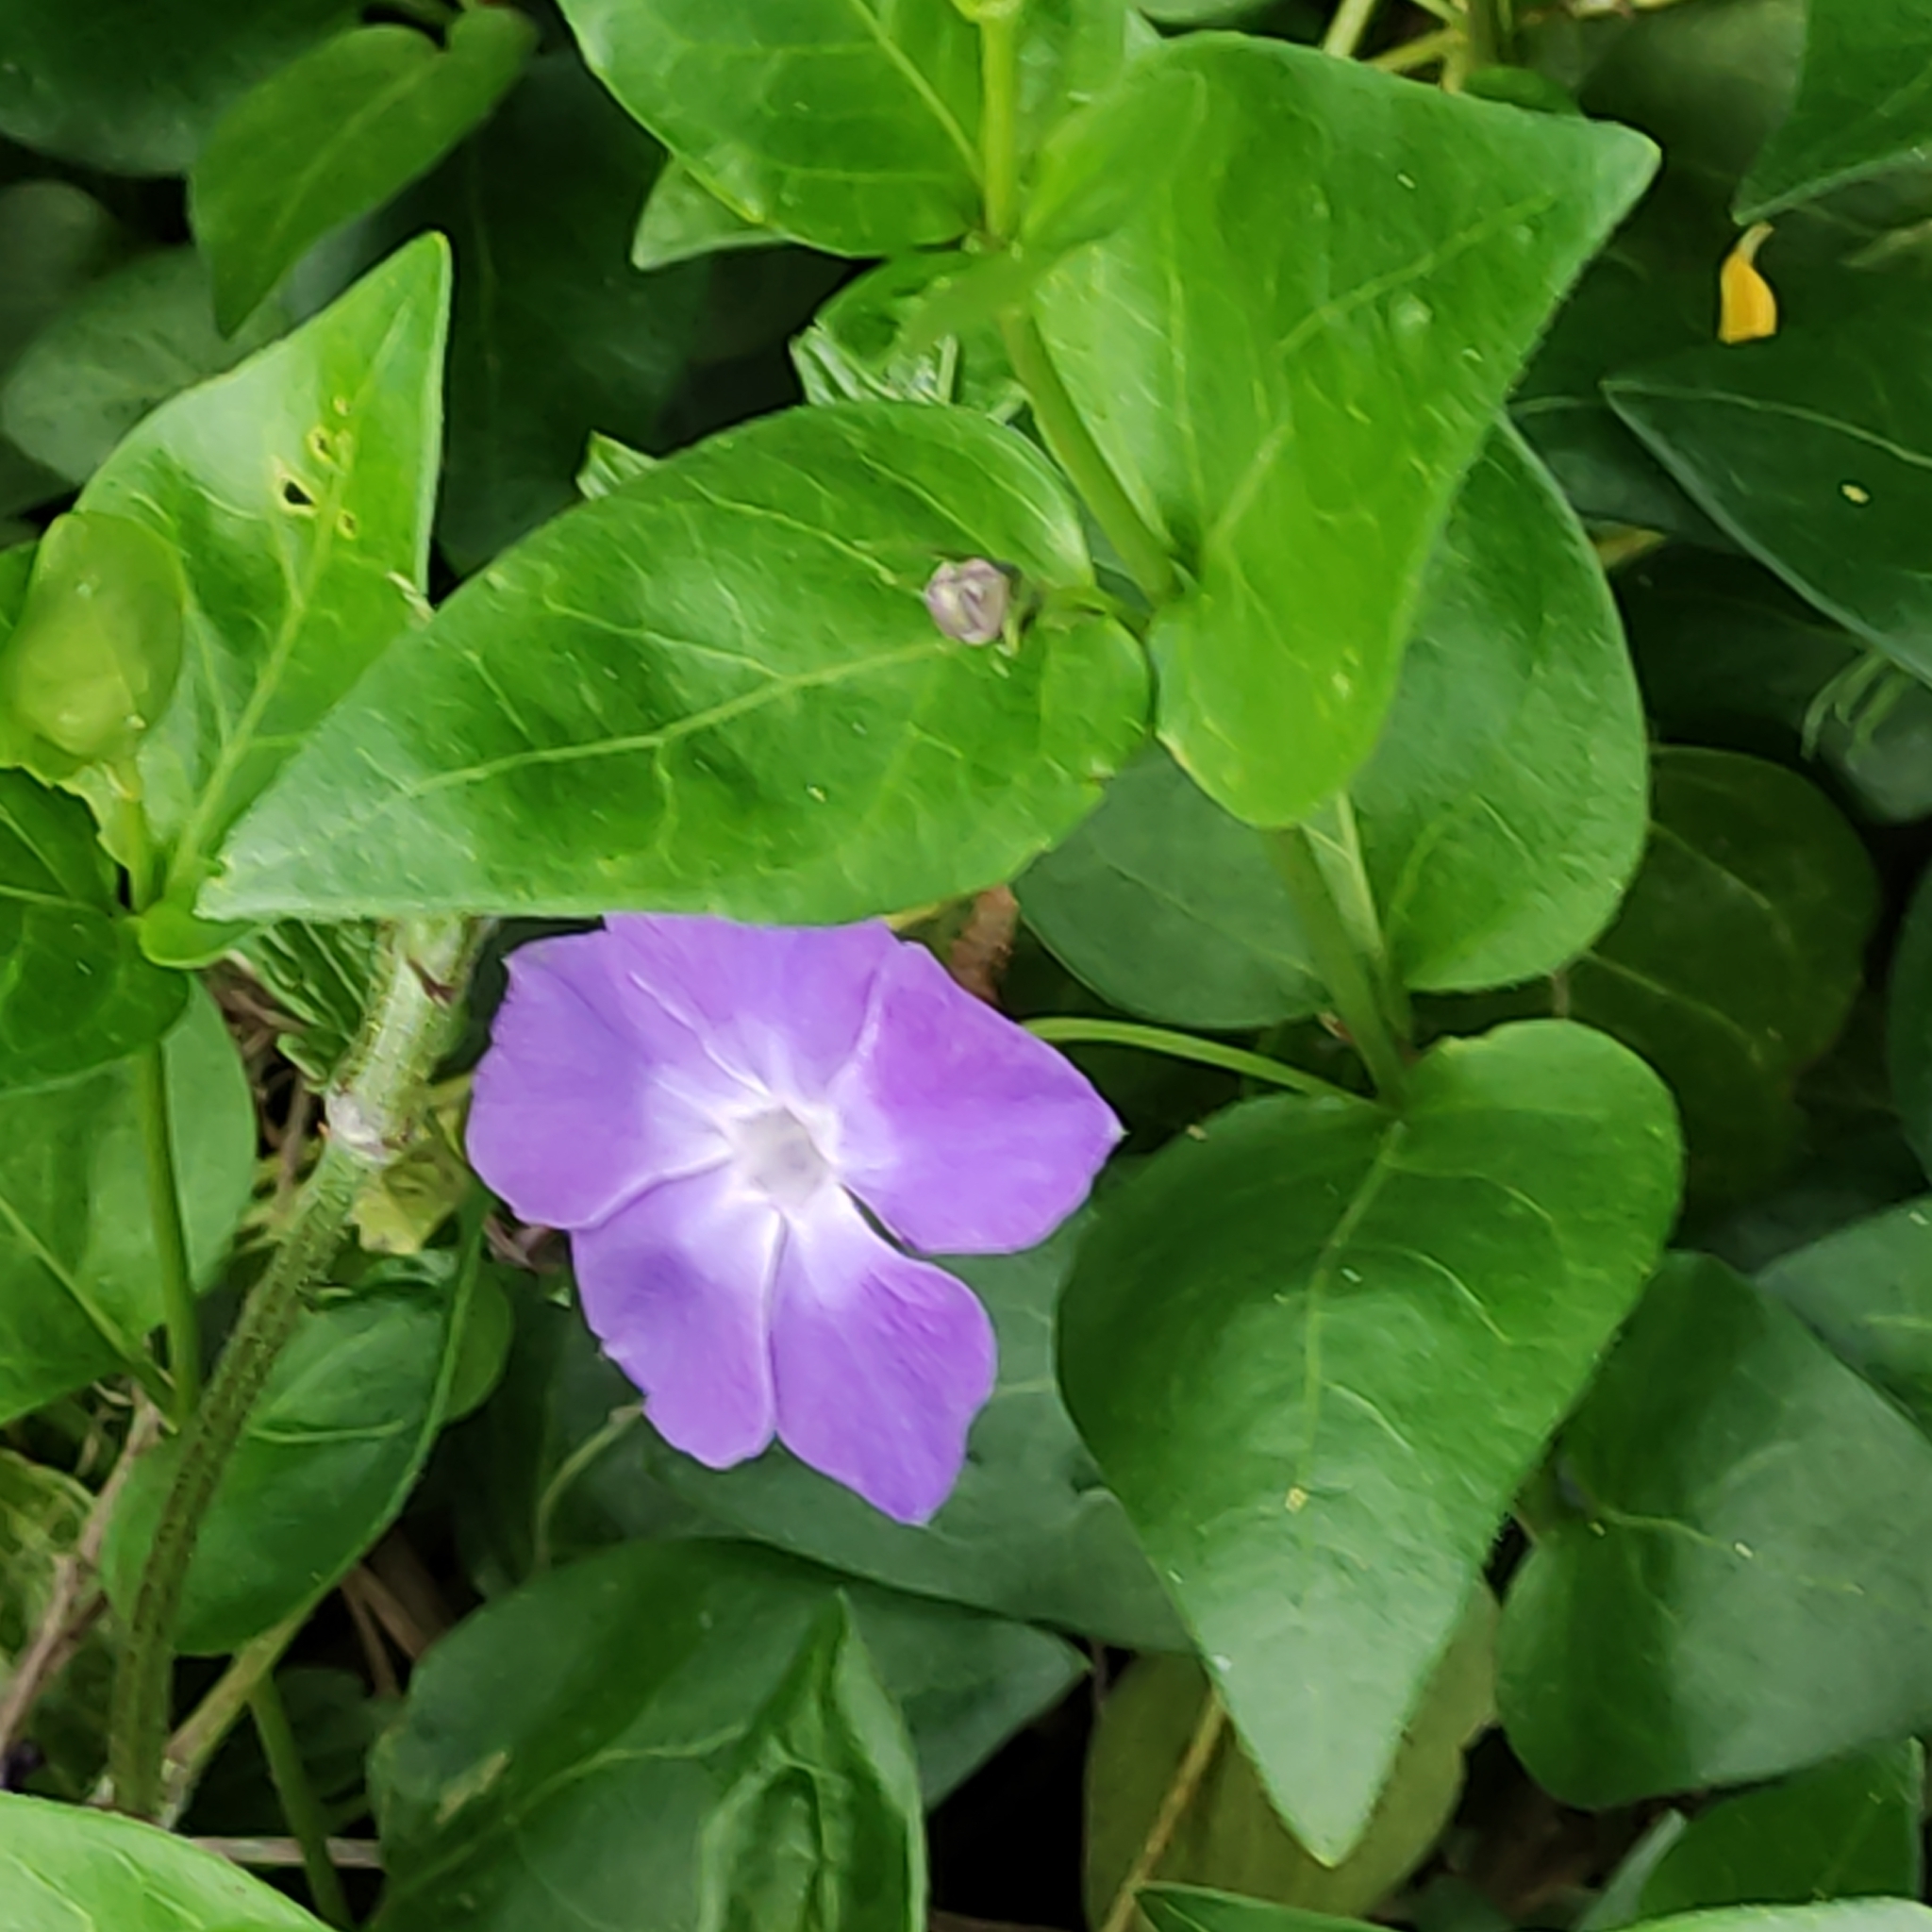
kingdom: Plantae
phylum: Tracheophyta
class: Magnoliopsida
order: Gentianales
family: Apocynaceae
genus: Vinca
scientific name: Vinca major
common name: Greater periwinkle
